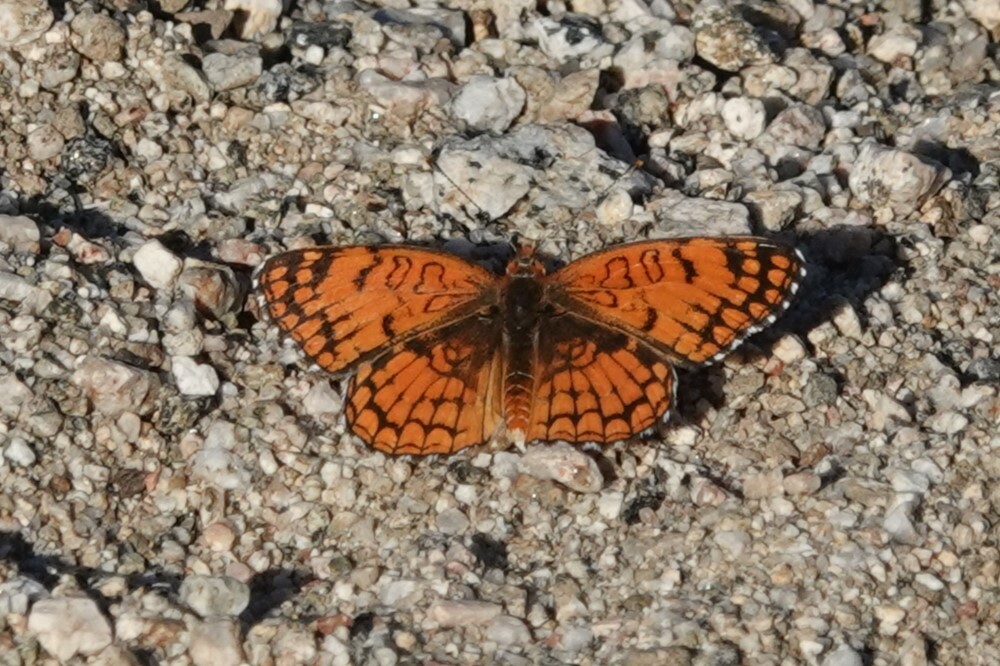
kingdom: Animalia
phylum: Arthropoda
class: Insecta
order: Lepidoptera
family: Nymphalidae
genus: Chlosyne
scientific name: Chlosyne acastus
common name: Sagebrush checkerspot
